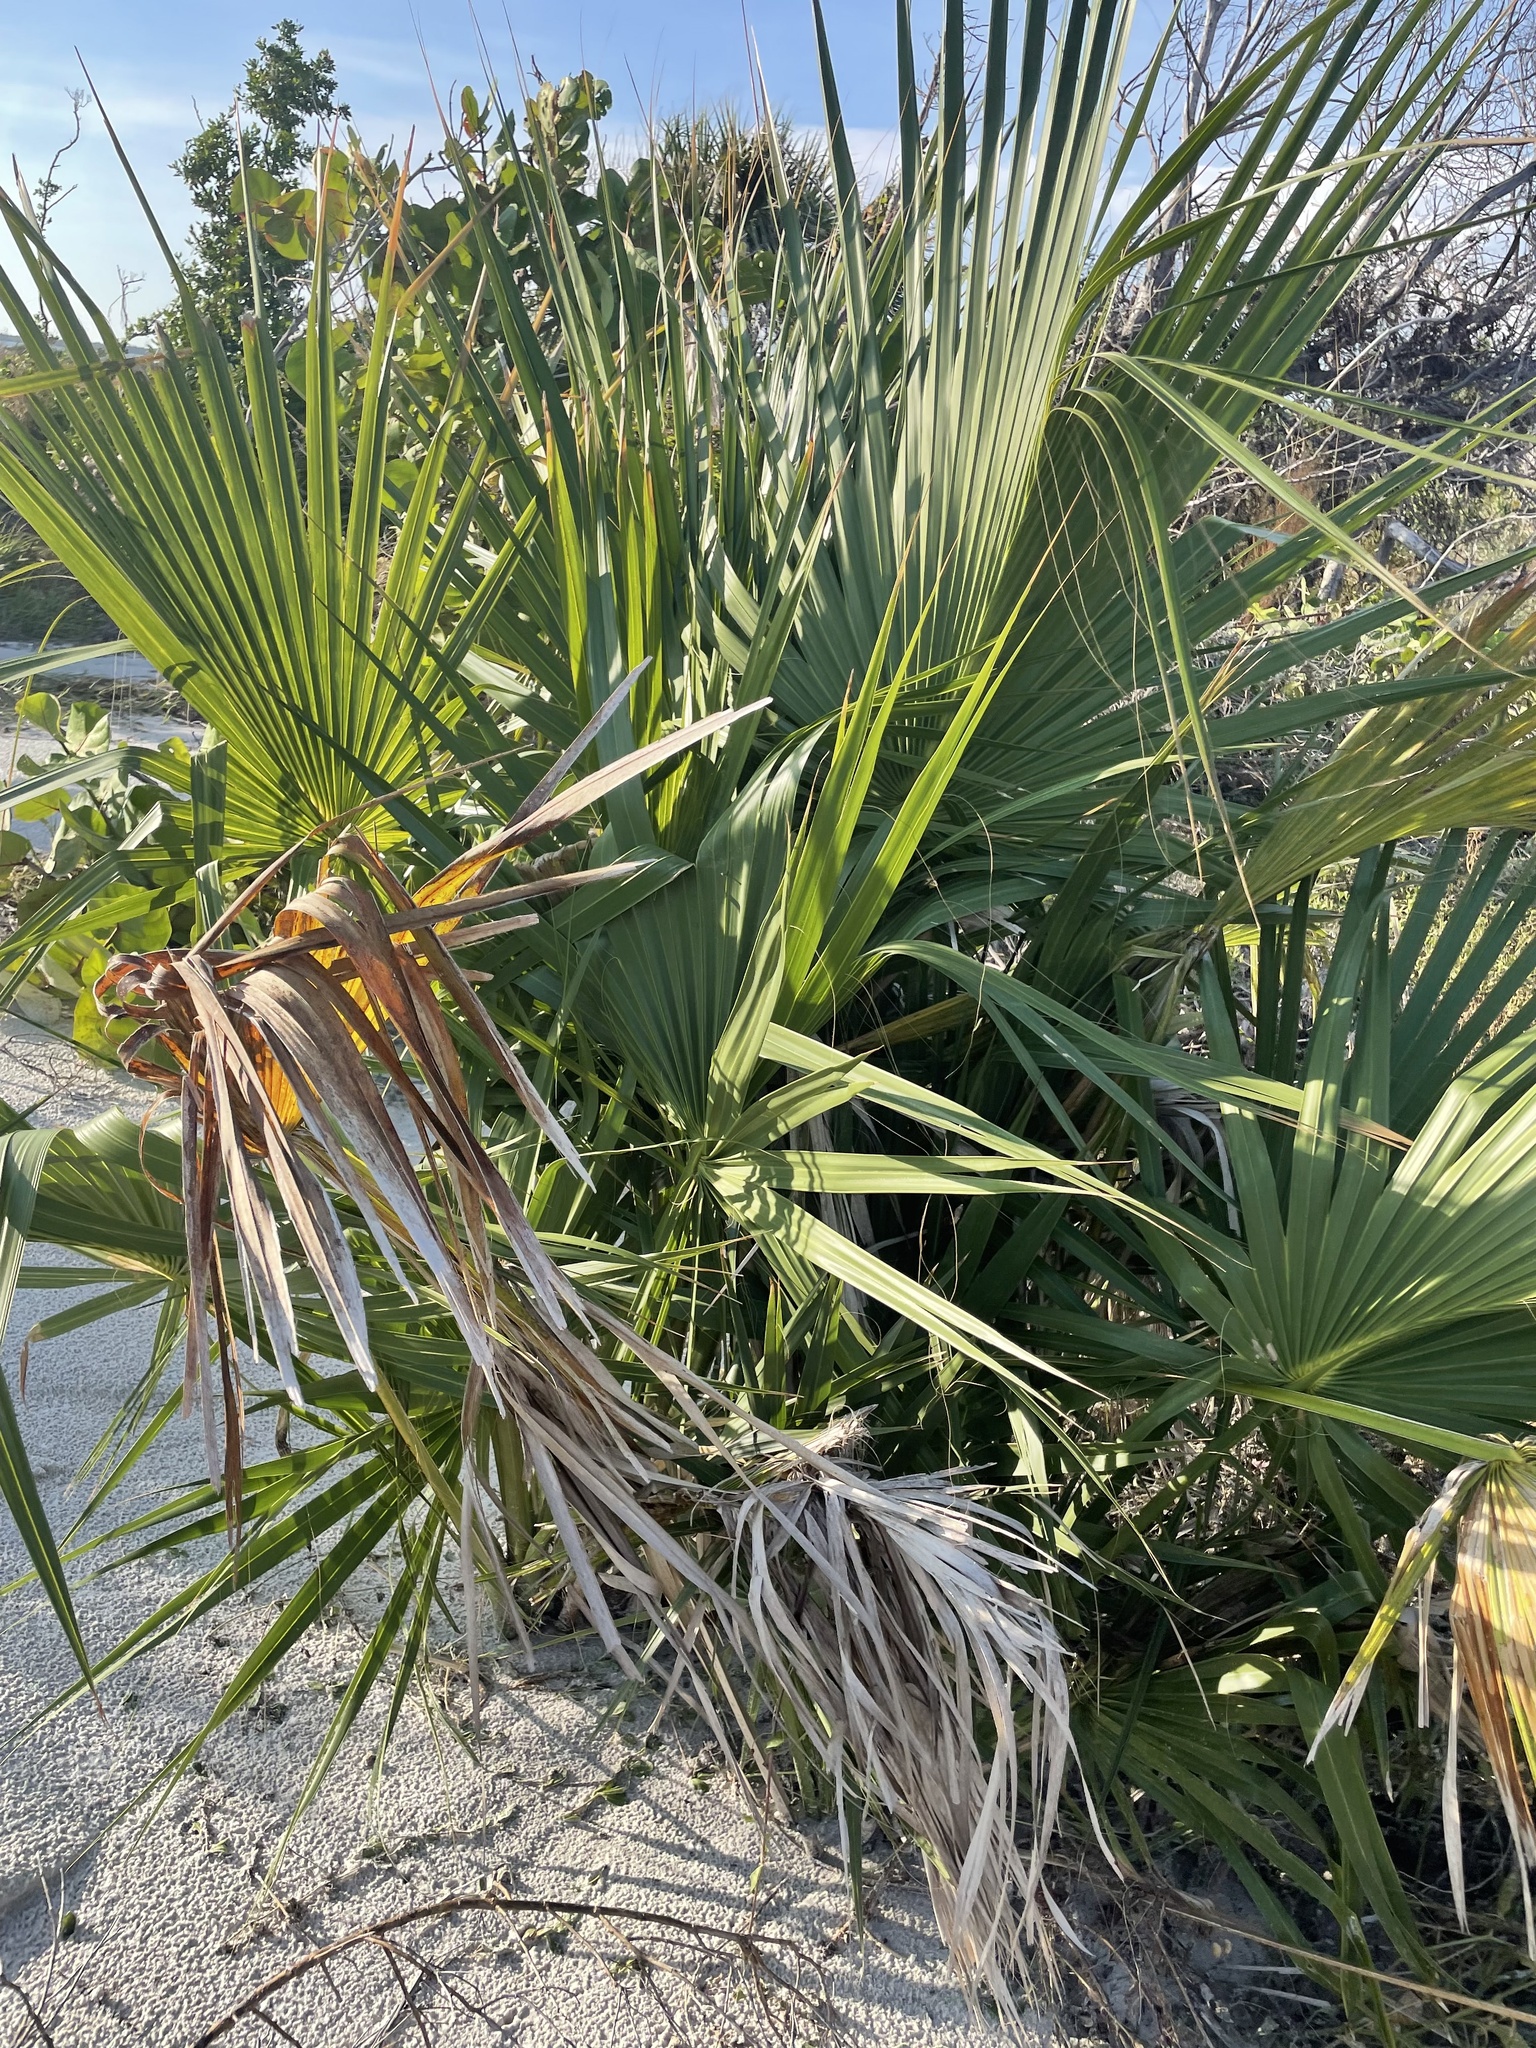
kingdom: Plantae
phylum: Tracheophyta
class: Liliopsida
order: Arecales
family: Arecaceae
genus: Sabal
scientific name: Sabal palmetto
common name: Blue palmetto
